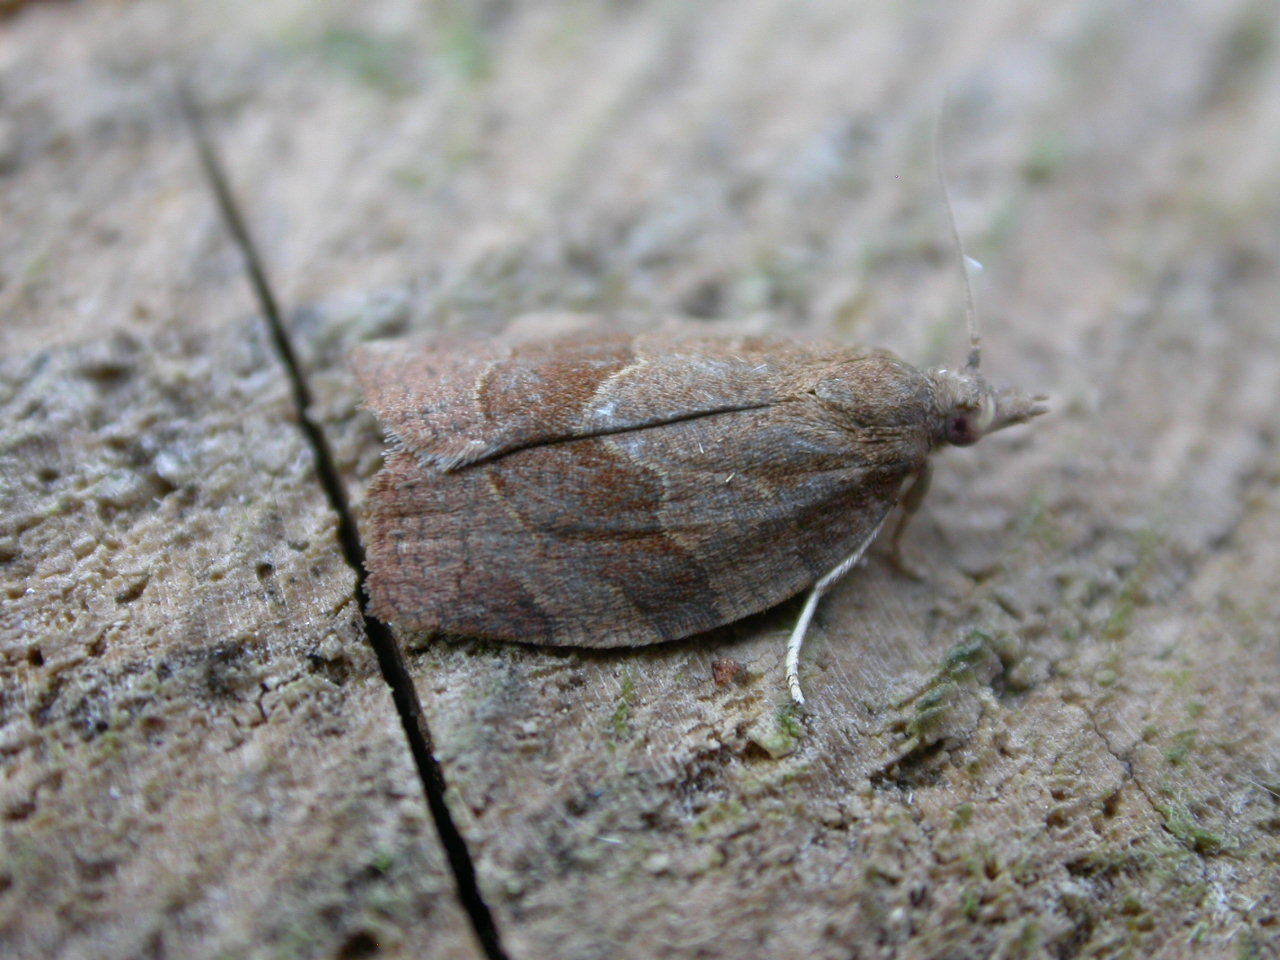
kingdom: Animalia
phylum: Arthropoda
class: Insecta
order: Lepidoptera
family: Tortricidae
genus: Pandemis
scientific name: Pandemis heparana
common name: Dark fruit-tree tortrix
